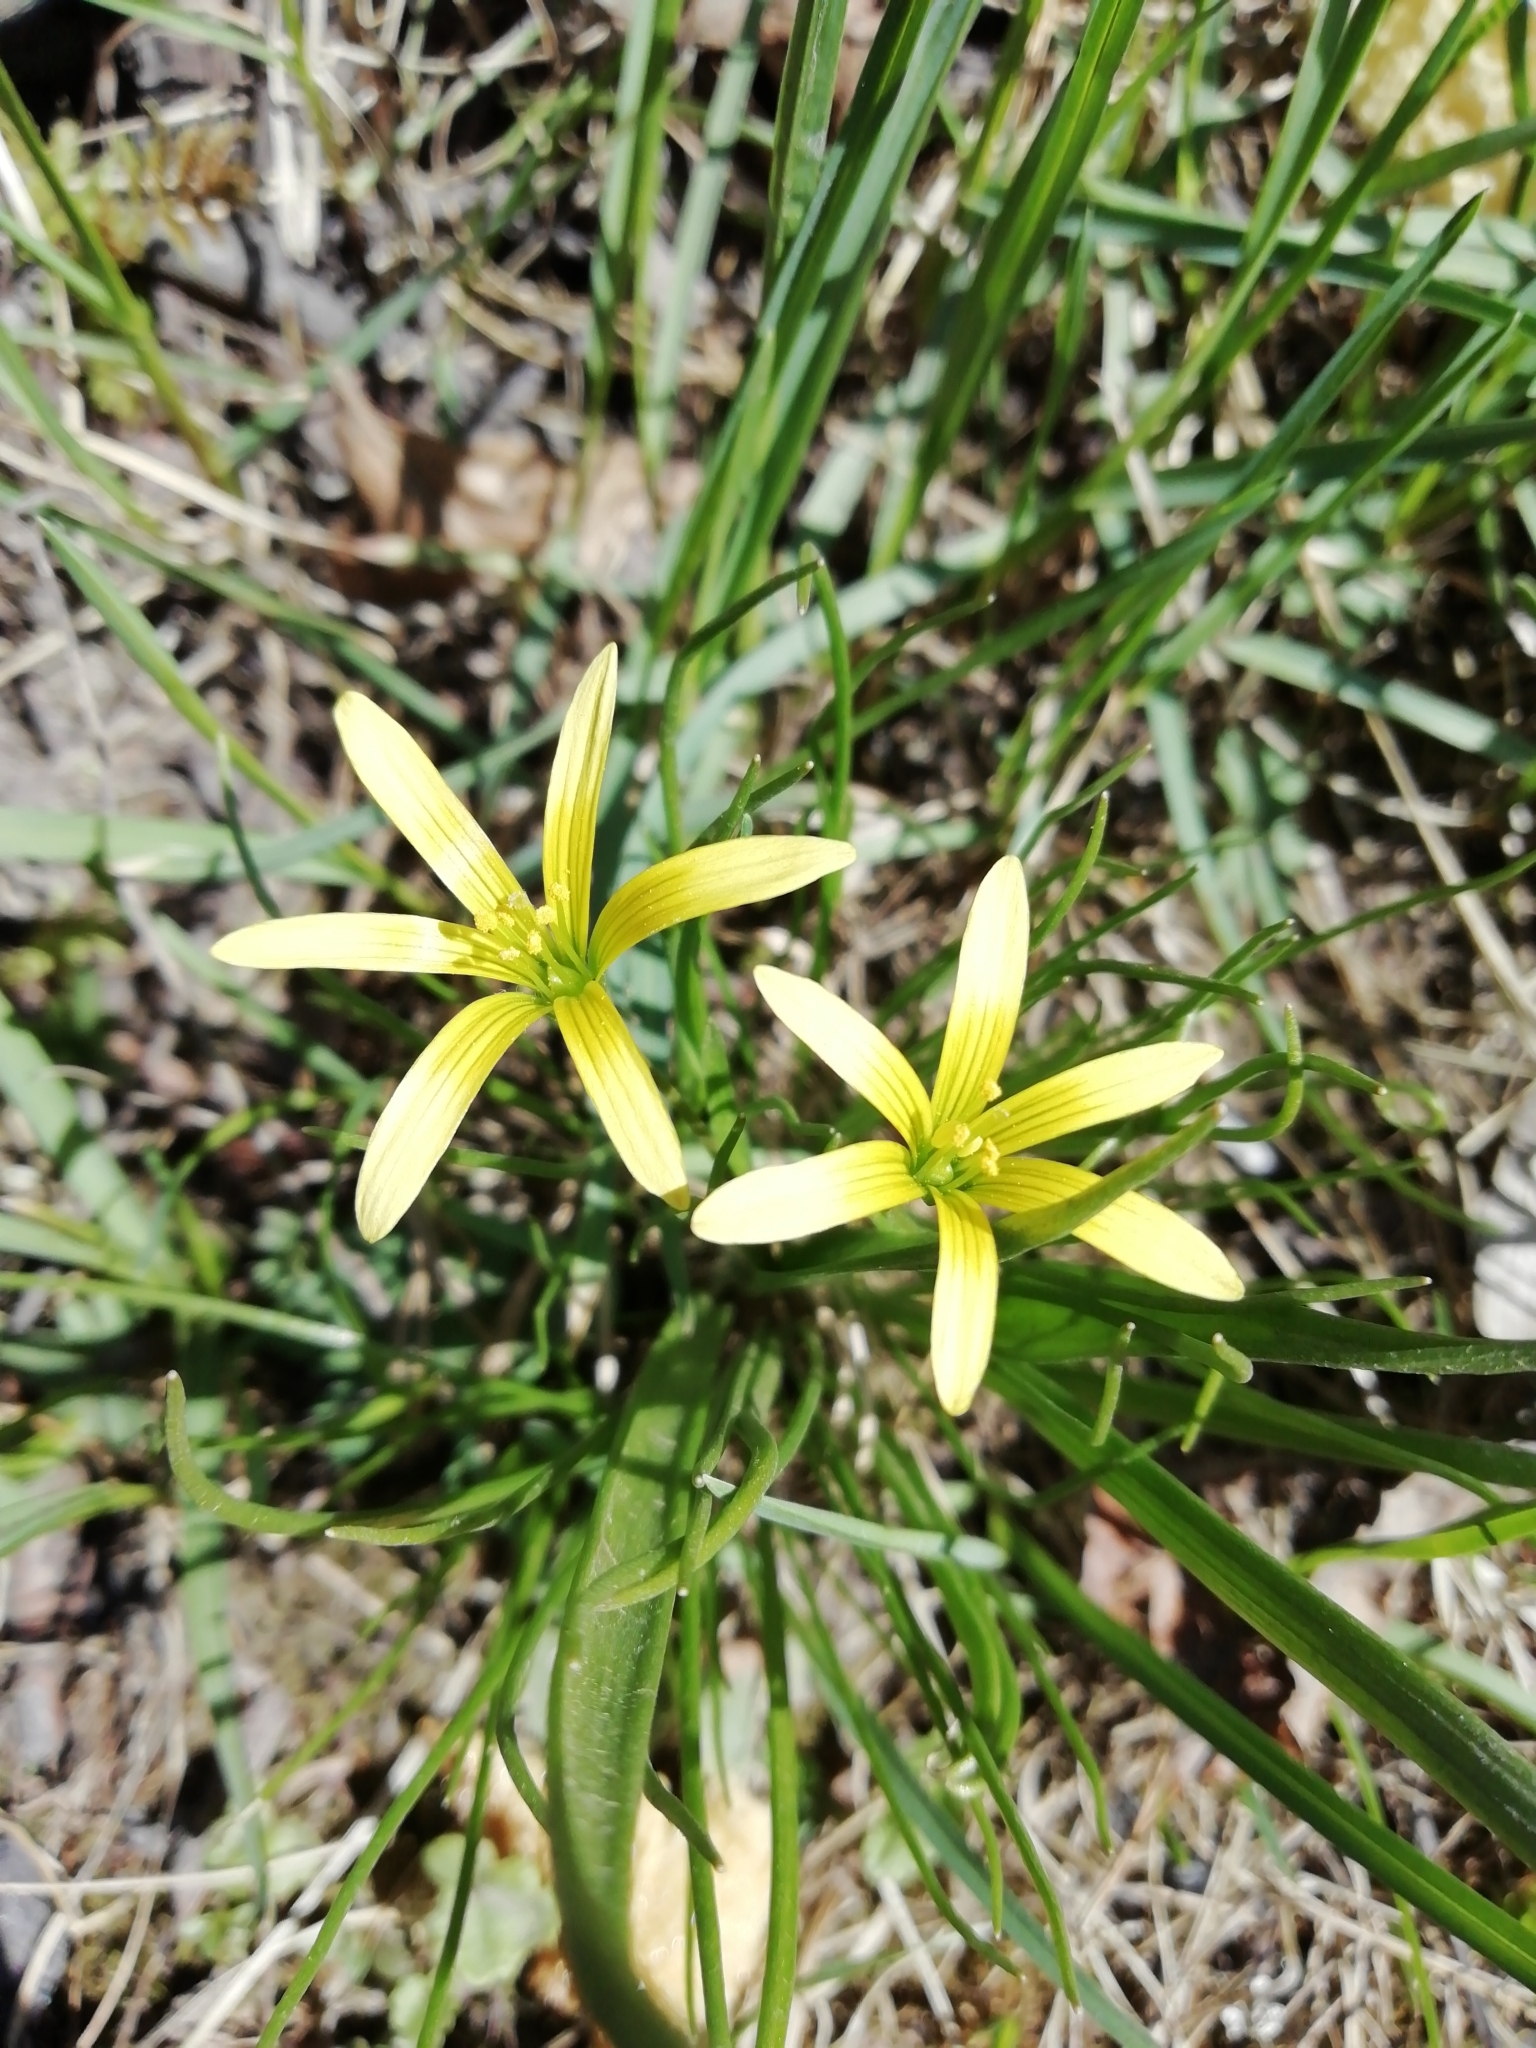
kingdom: Plantae
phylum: Tracheophyta
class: Liliopsida
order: Liliales
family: Liliaceae
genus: Gagea
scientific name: Gagea granulosa
